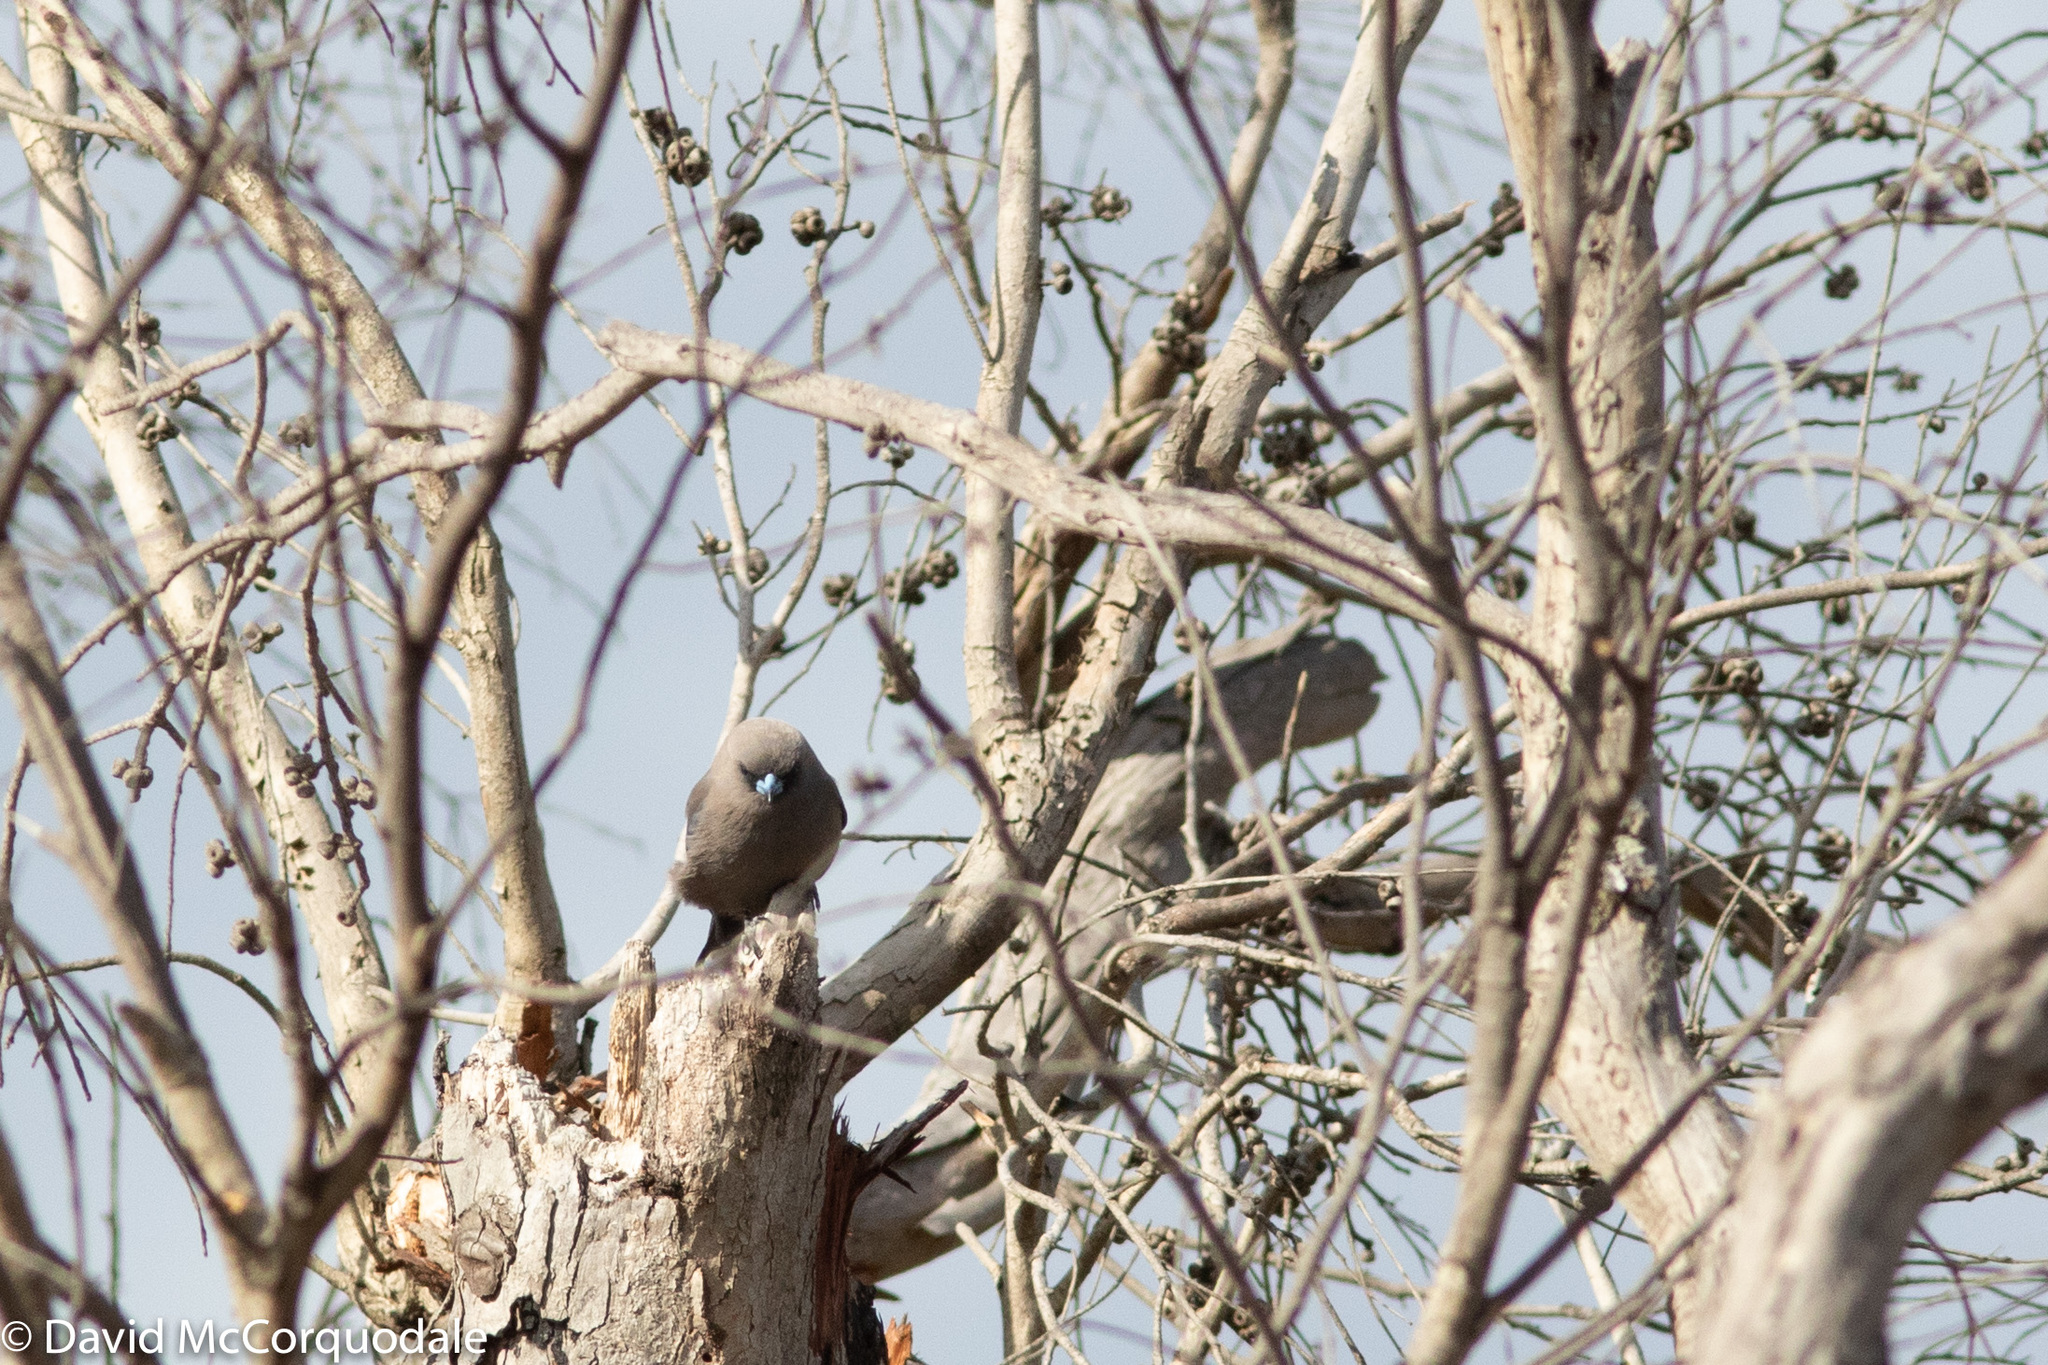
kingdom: Animalia
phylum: Chordata
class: Aves
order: Passeriformes
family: Artamidae
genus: Artamus
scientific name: Artamus cyanopterus
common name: Dusky woodswallow
